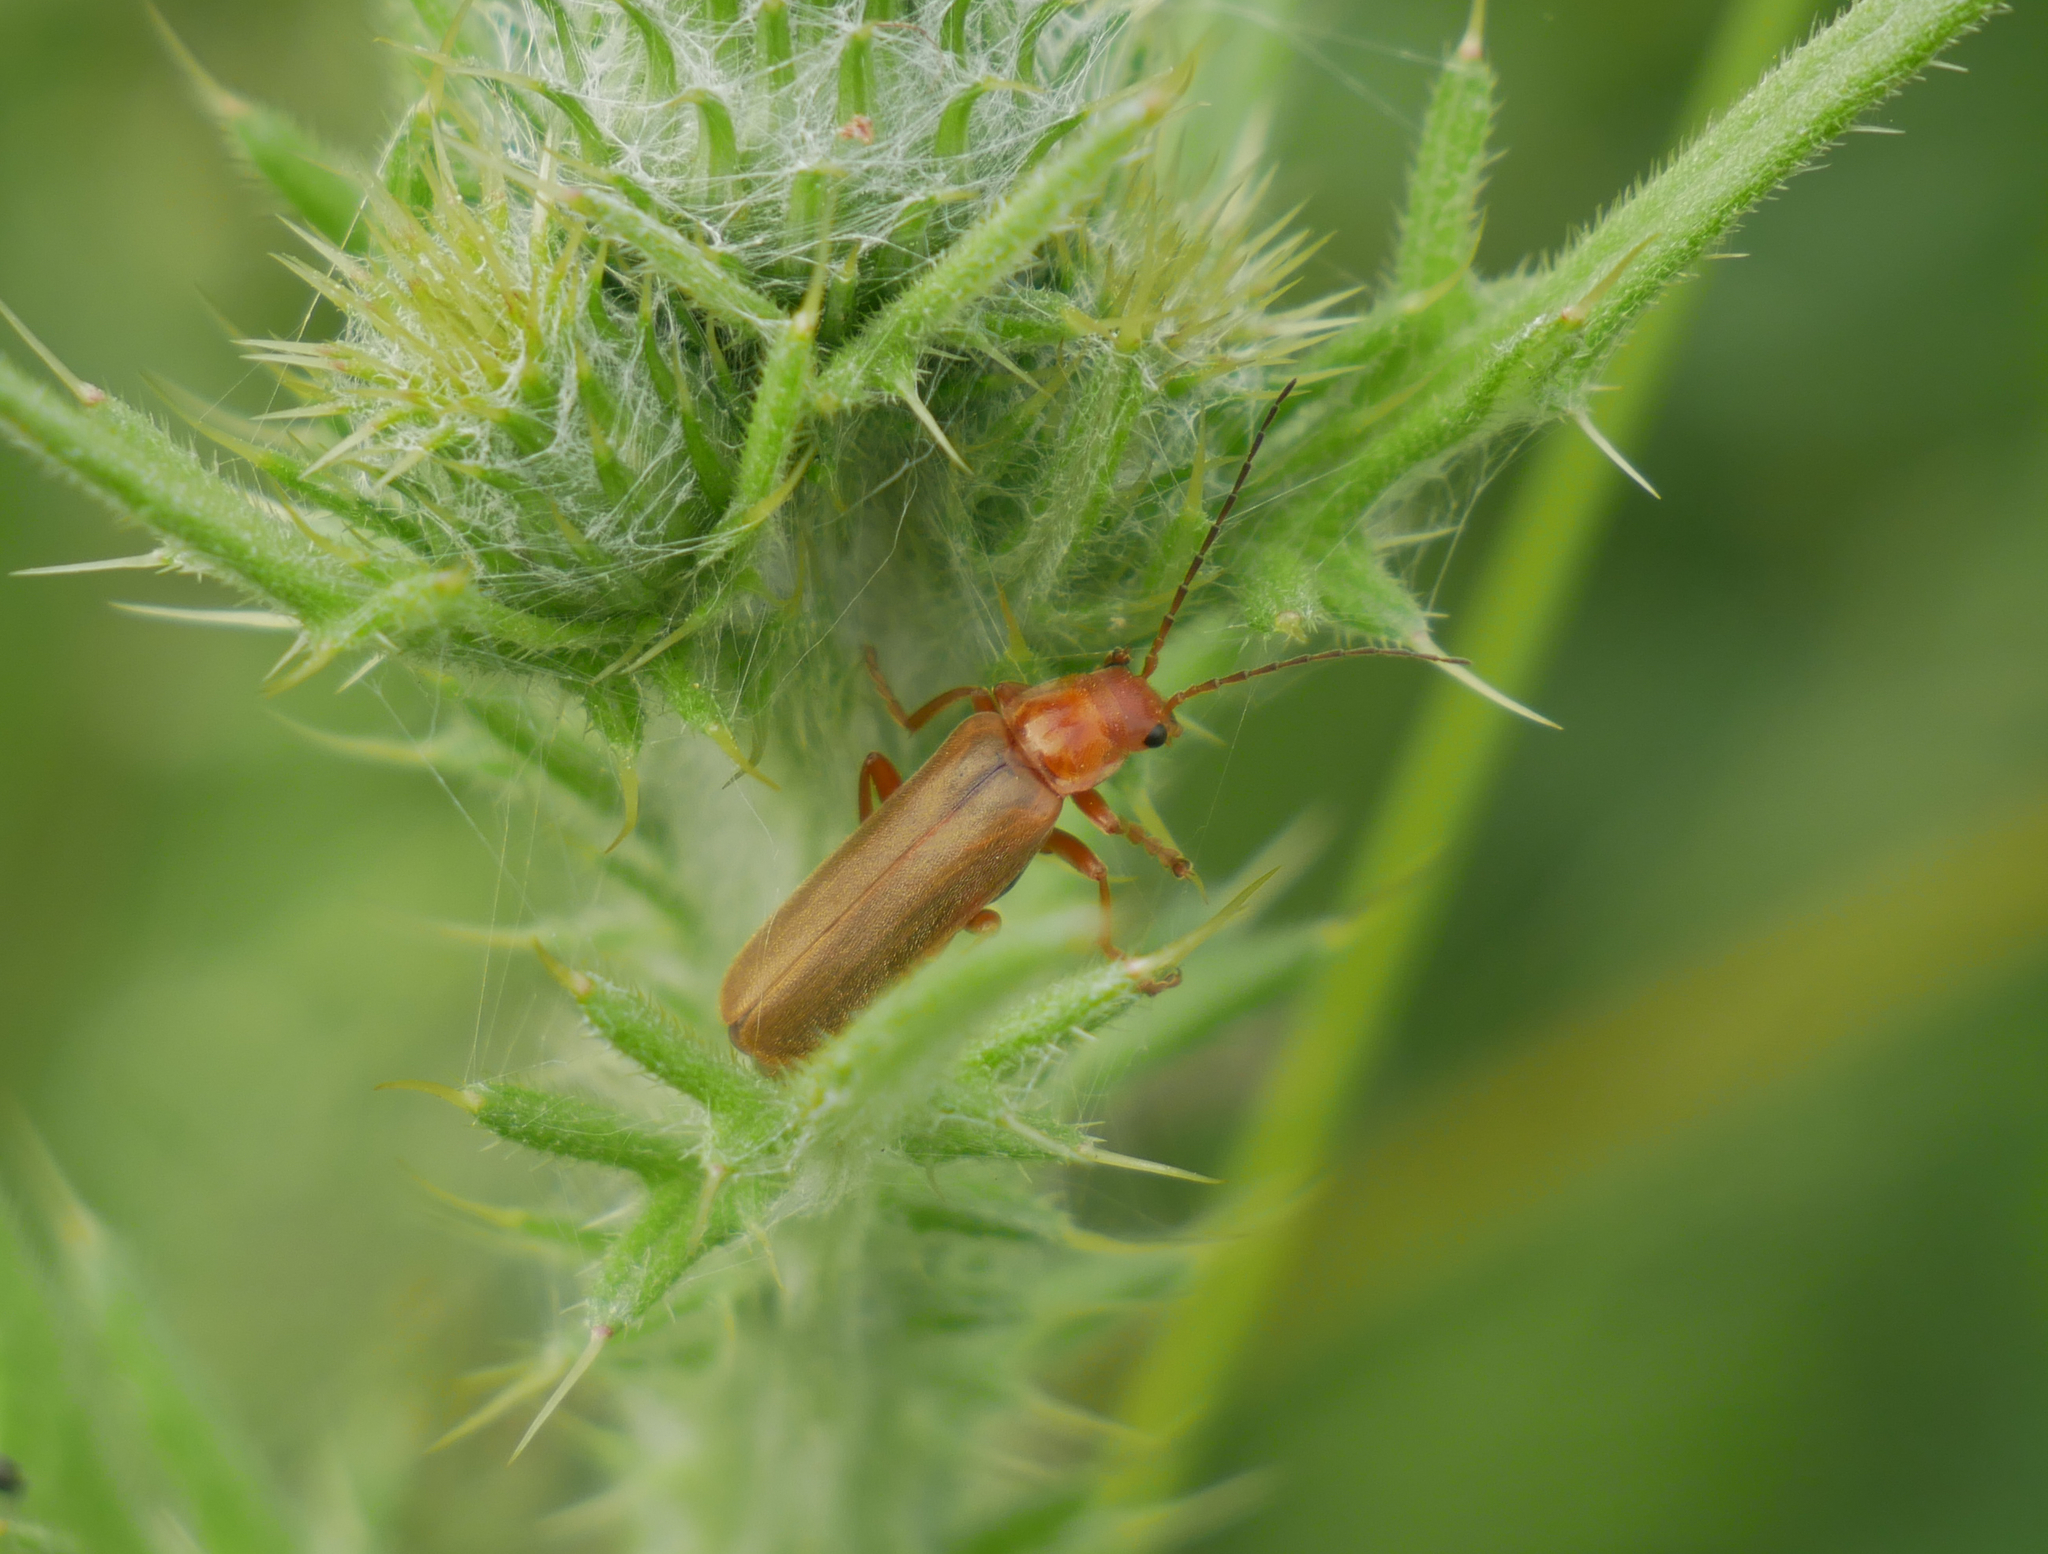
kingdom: Animalia
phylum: Arthropoda
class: Insecta
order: Coleoptera
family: Cantharidae
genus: Cantharis
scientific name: Cantharis rufa
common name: Red-spotted soldier beetle
